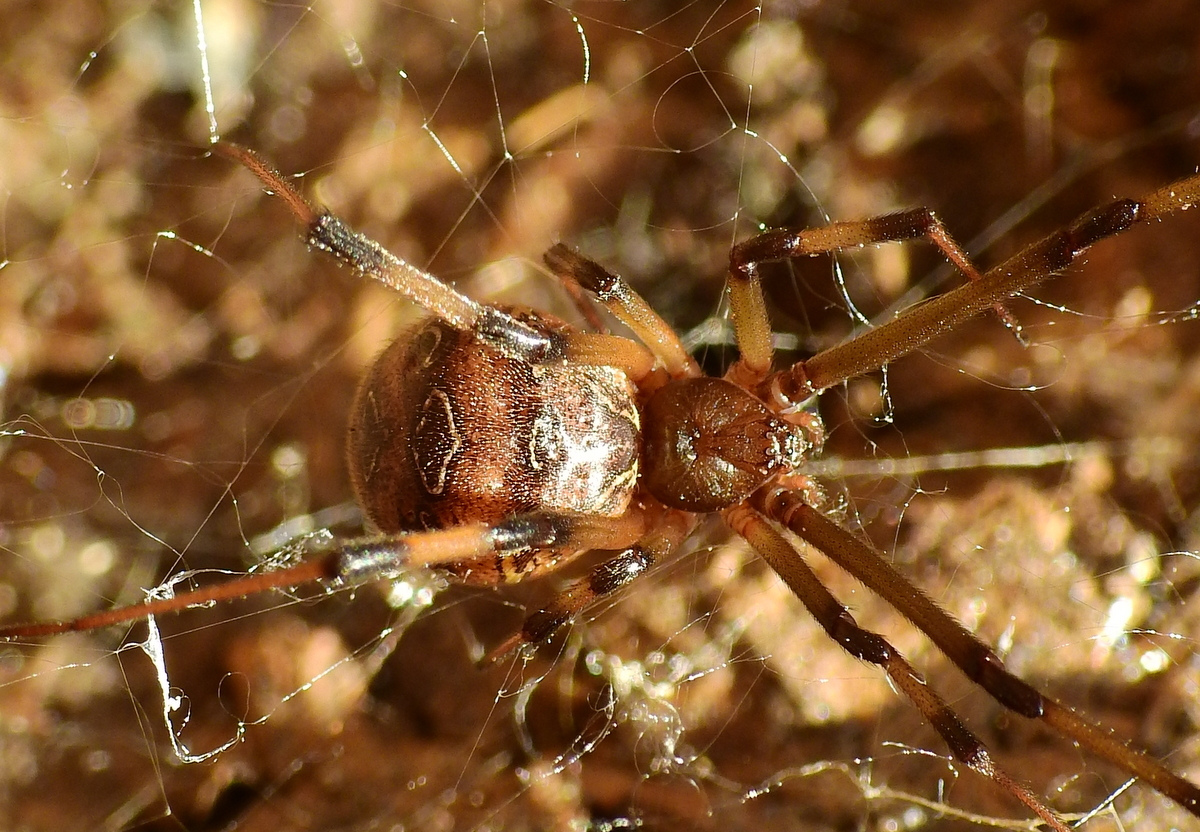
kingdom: Animalia
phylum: Arthropoda
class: Arachnida
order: Araneae
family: Theridiidae
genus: Latrodectus
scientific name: Latrodectus geometricus
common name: Brown widow spider
